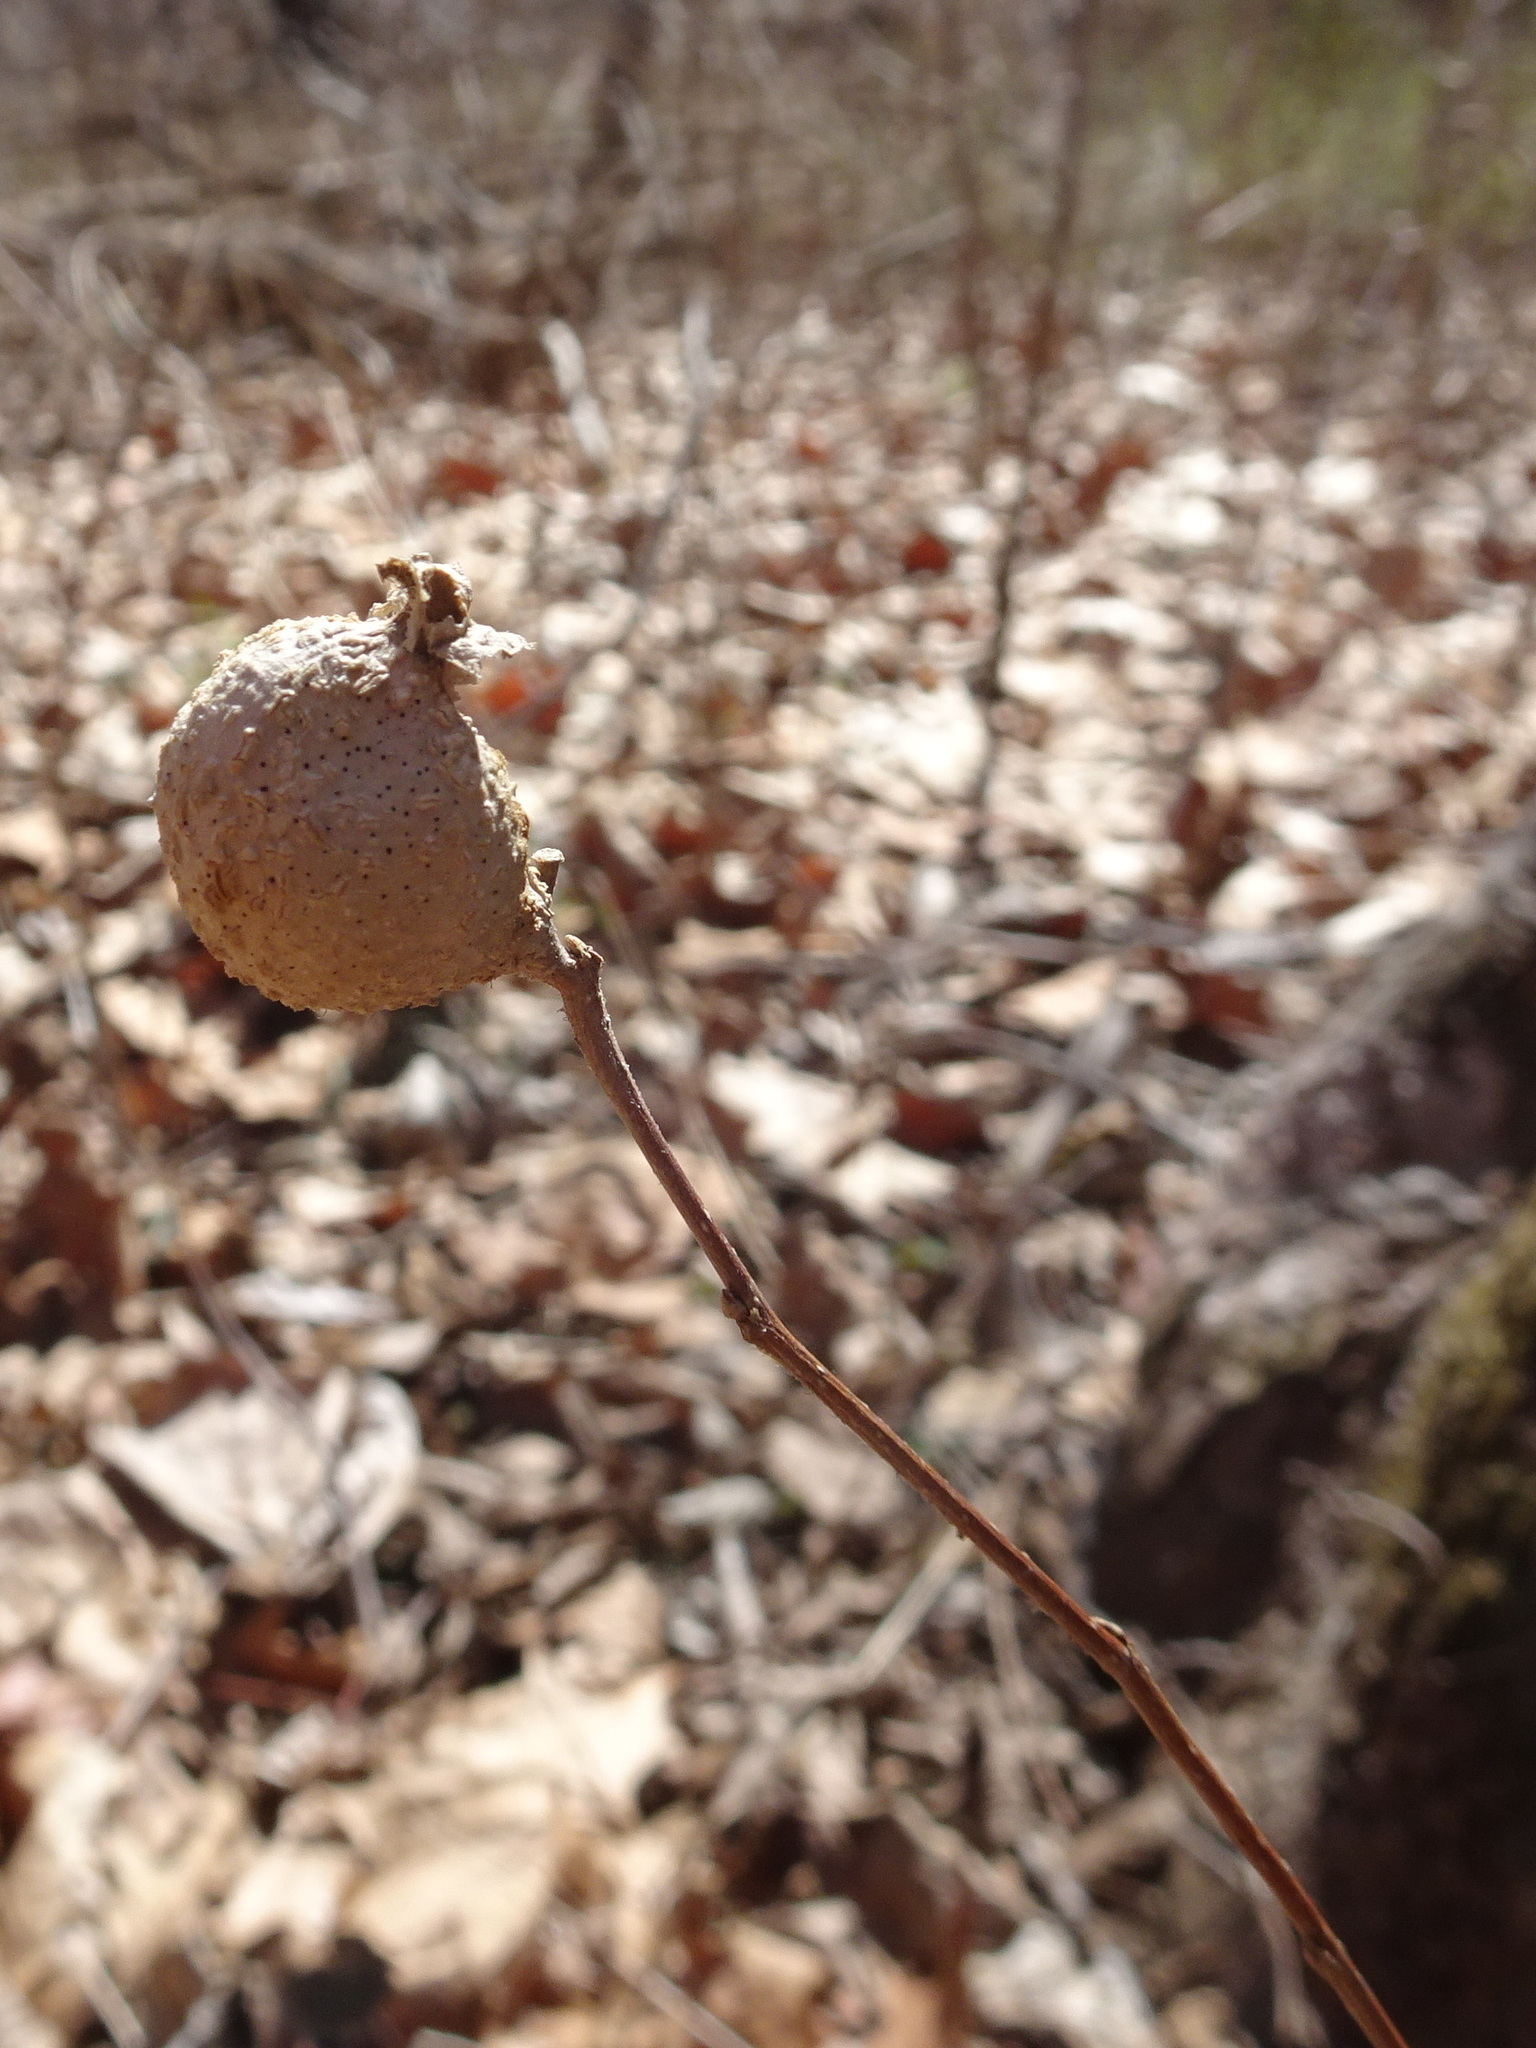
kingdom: Animalia
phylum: Arthropoda
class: Insecta
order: Hemiptera
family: Aphalaridae
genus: Pachypsylla
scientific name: Pachypsylla venusta
